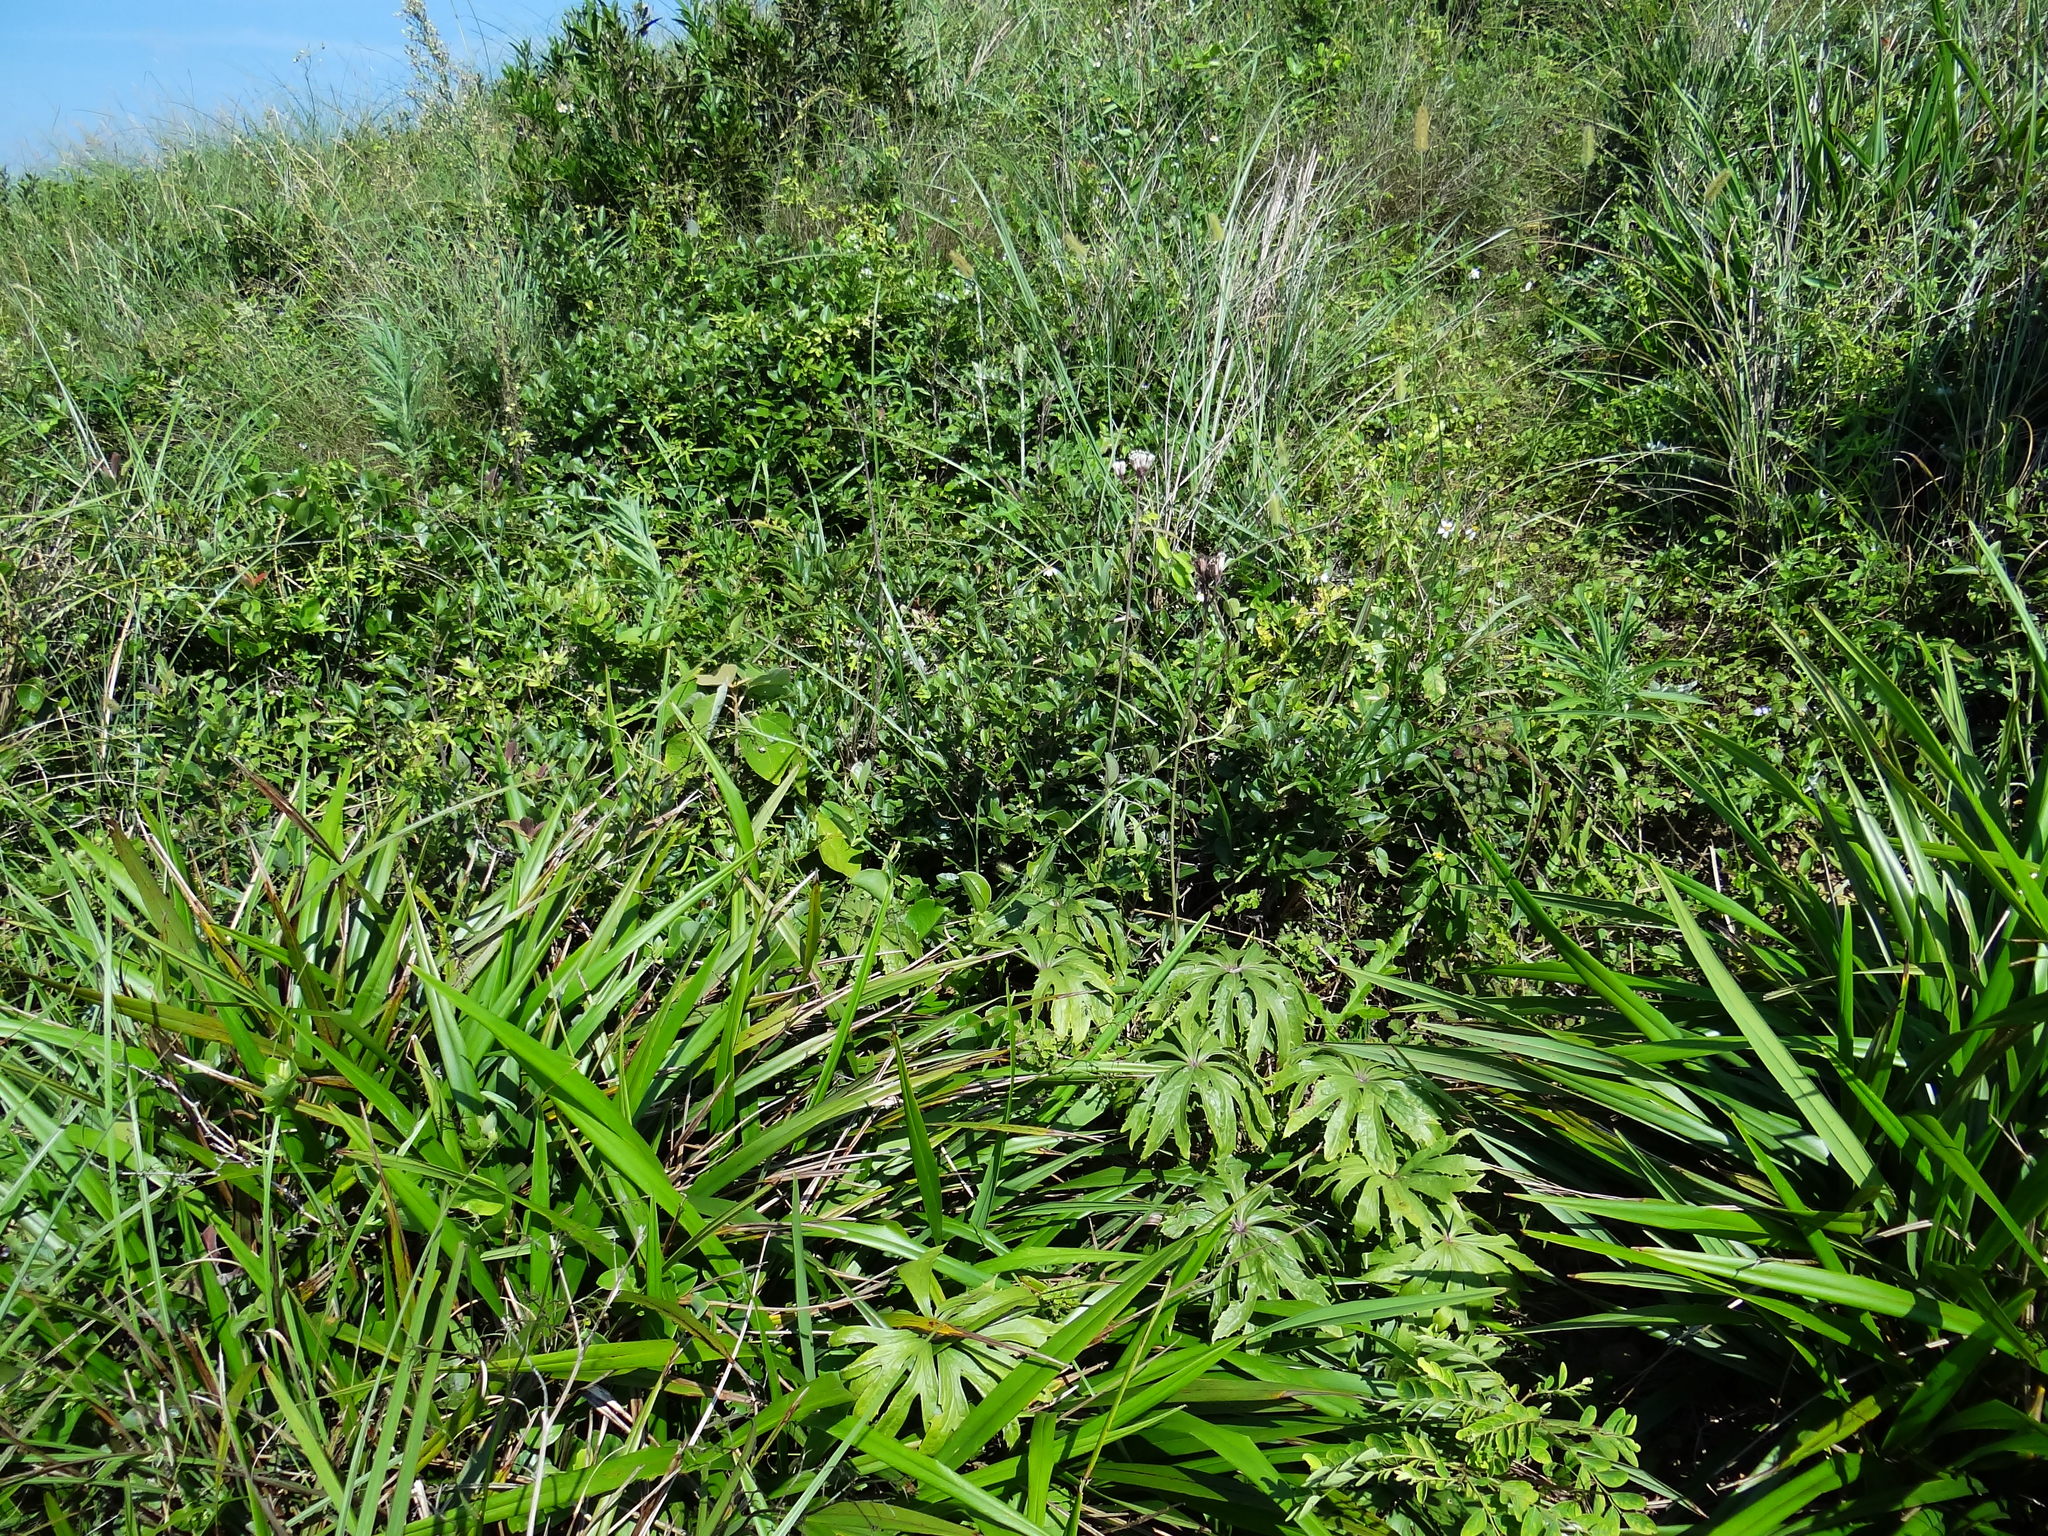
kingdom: Plantae
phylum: Tracheophyta
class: Magnoliopsida
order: Asterales
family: Asteraceae
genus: Syneilesis
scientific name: Syneilesis hayatae
